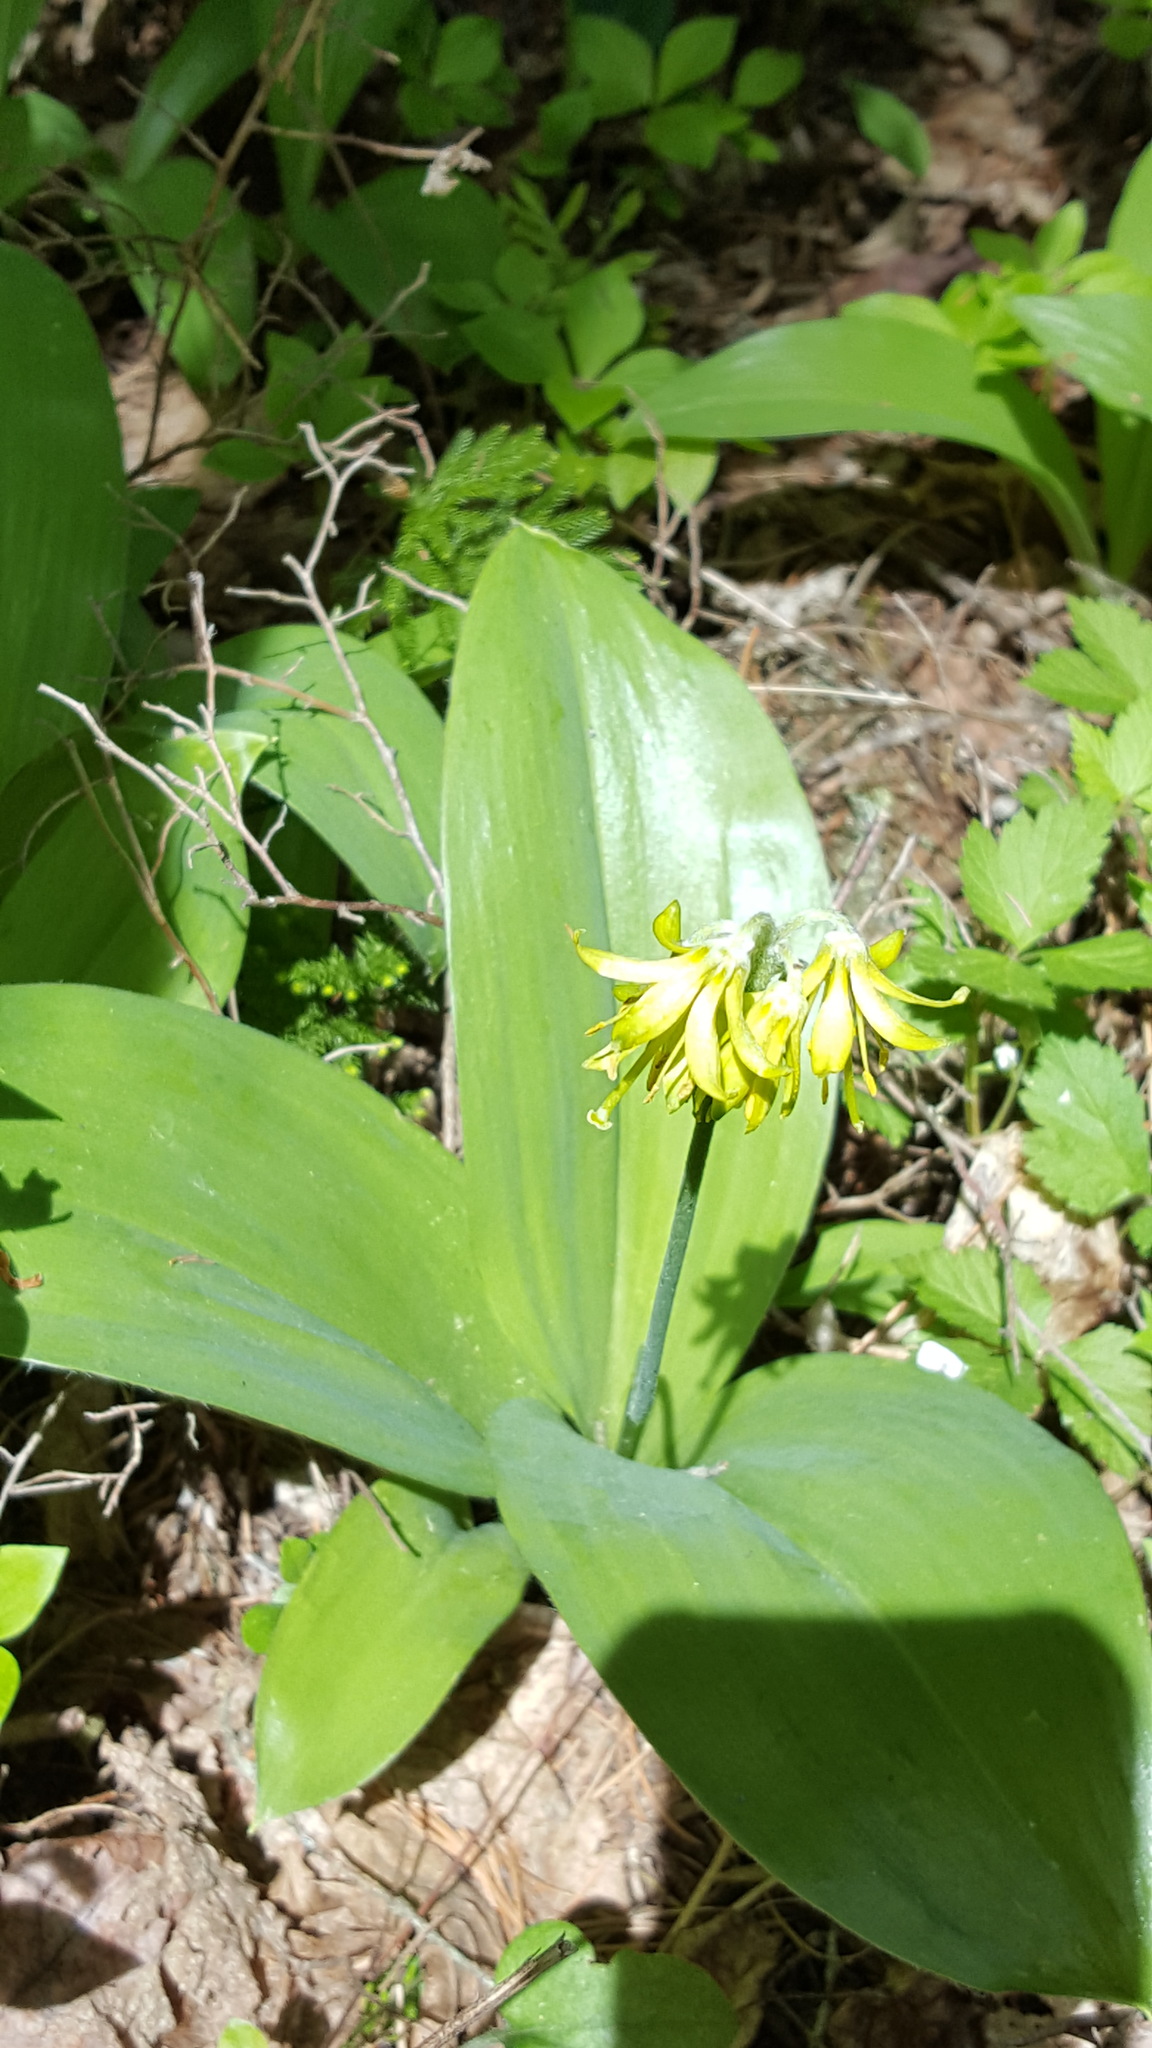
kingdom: Plantae
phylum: Tracheophyta
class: Liliopsida
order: Liliales
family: Liliaceae
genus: Clintonia
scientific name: Clintonia borealis
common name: Yellow clintonia
